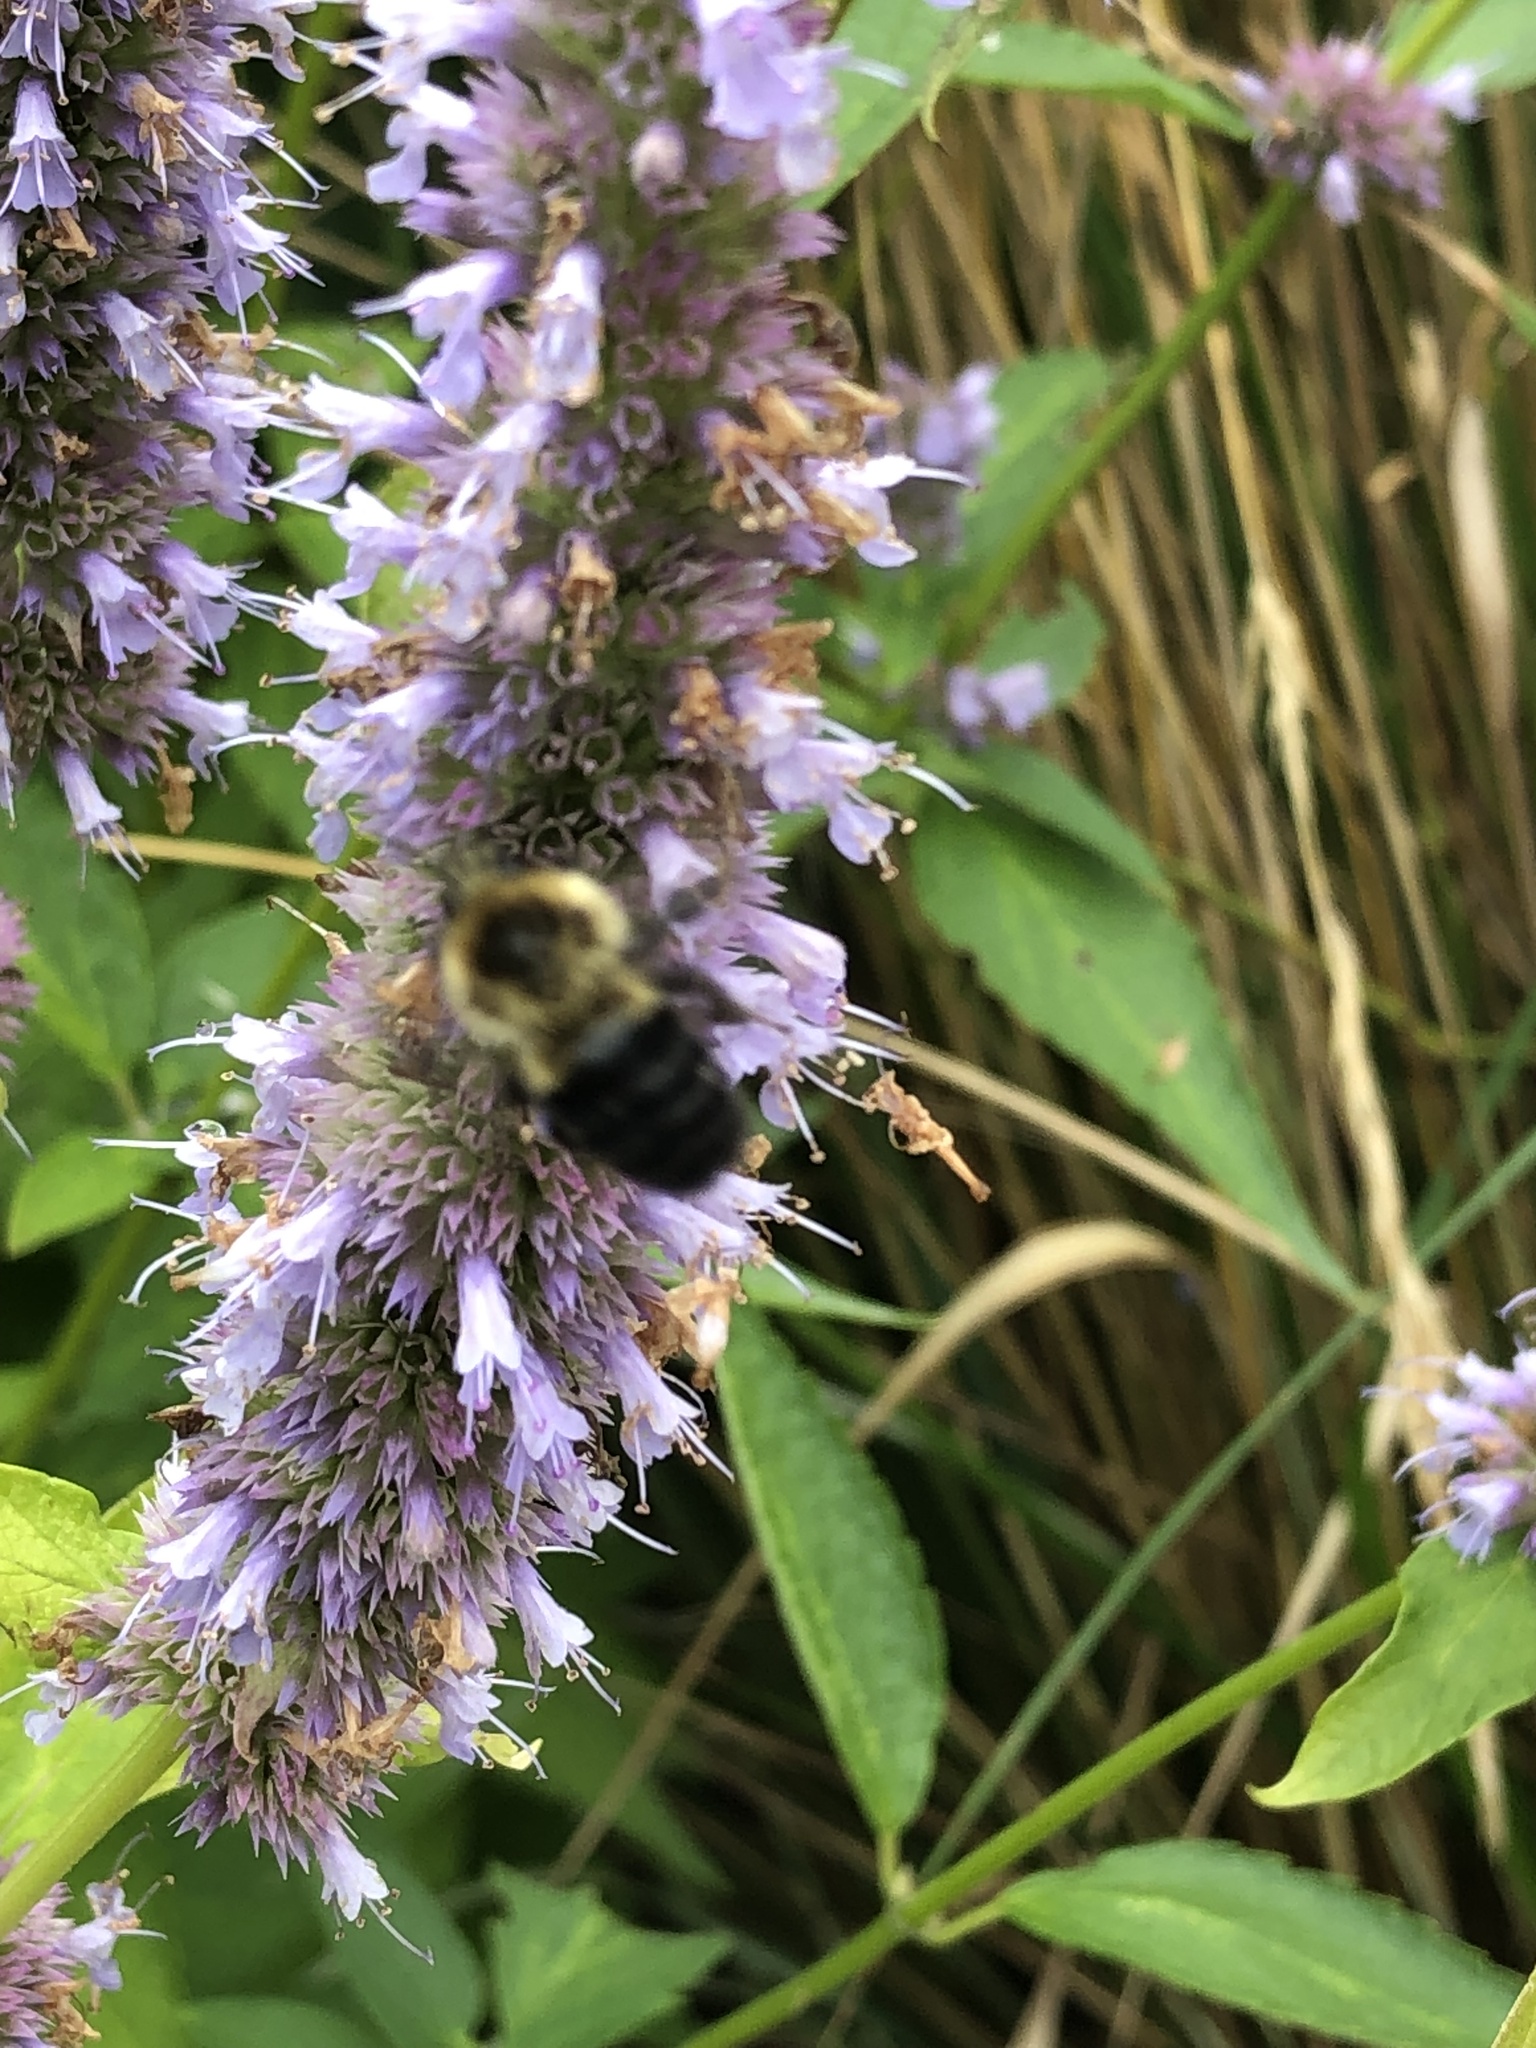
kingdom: Animalia
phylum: Arthropoda
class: Insecta
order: Hymenoptera
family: Apidae
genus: Bombus
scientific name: Bombus impatiens
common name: Common eastern bumble bee
